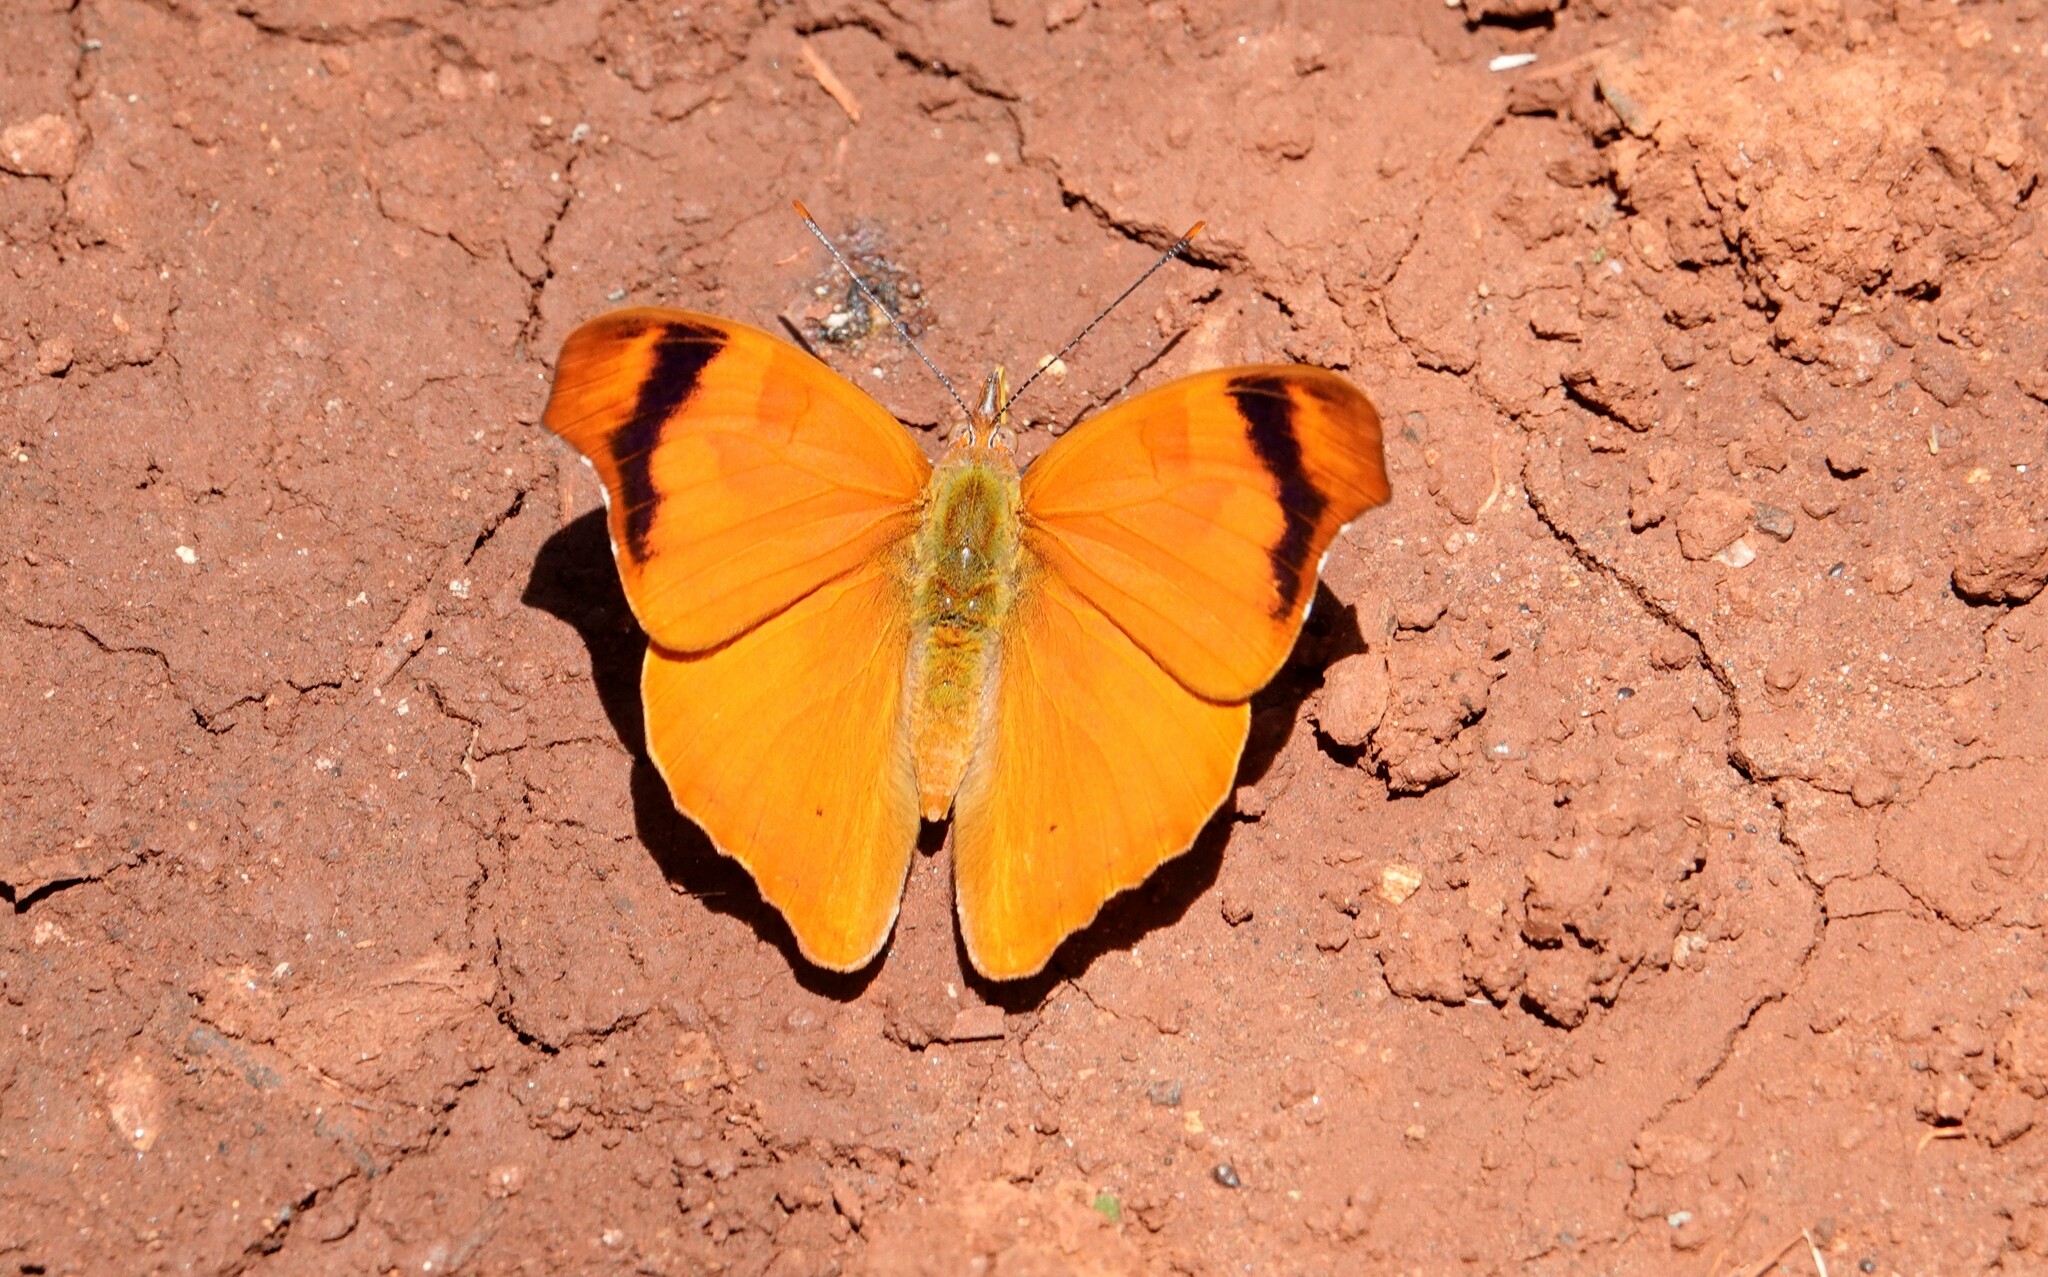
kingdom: Animalia
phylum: Arthropoda
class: Insecta
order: Lepidoptera
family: Nymphalidae
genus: Temenis
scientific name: Temenis laothoe
